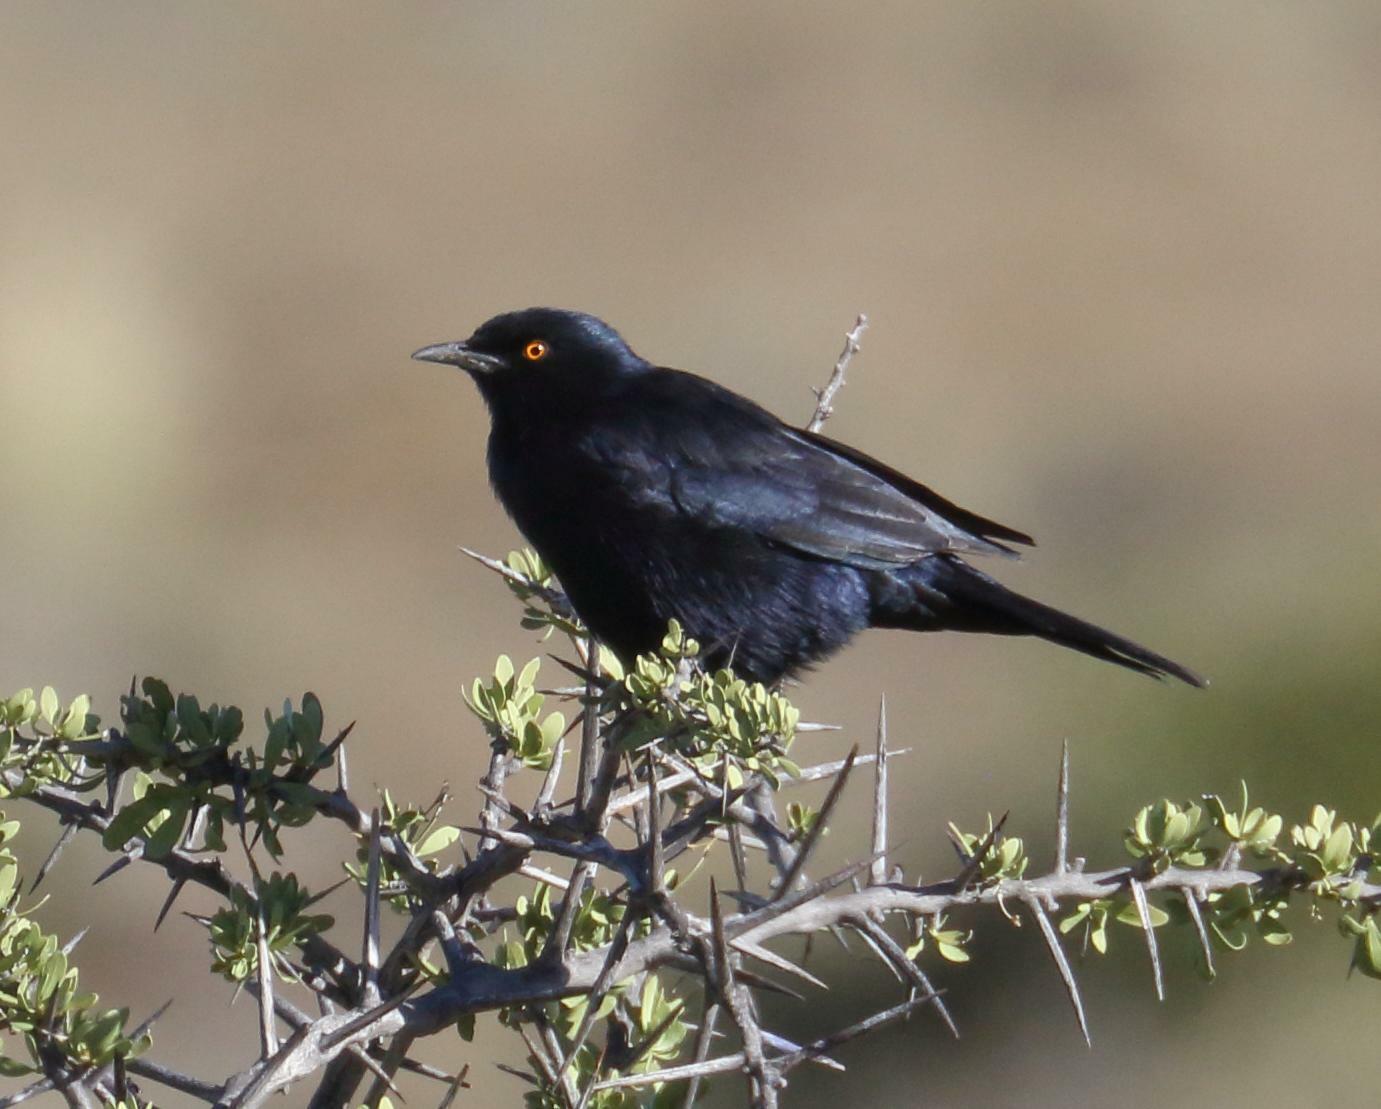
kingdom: Animalia
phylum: Chordata
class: Aves
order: Passeriformes
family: Sturnidae
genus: Onychognathus
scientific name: Onychognathus nabouroup
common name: Pale-winged starling
